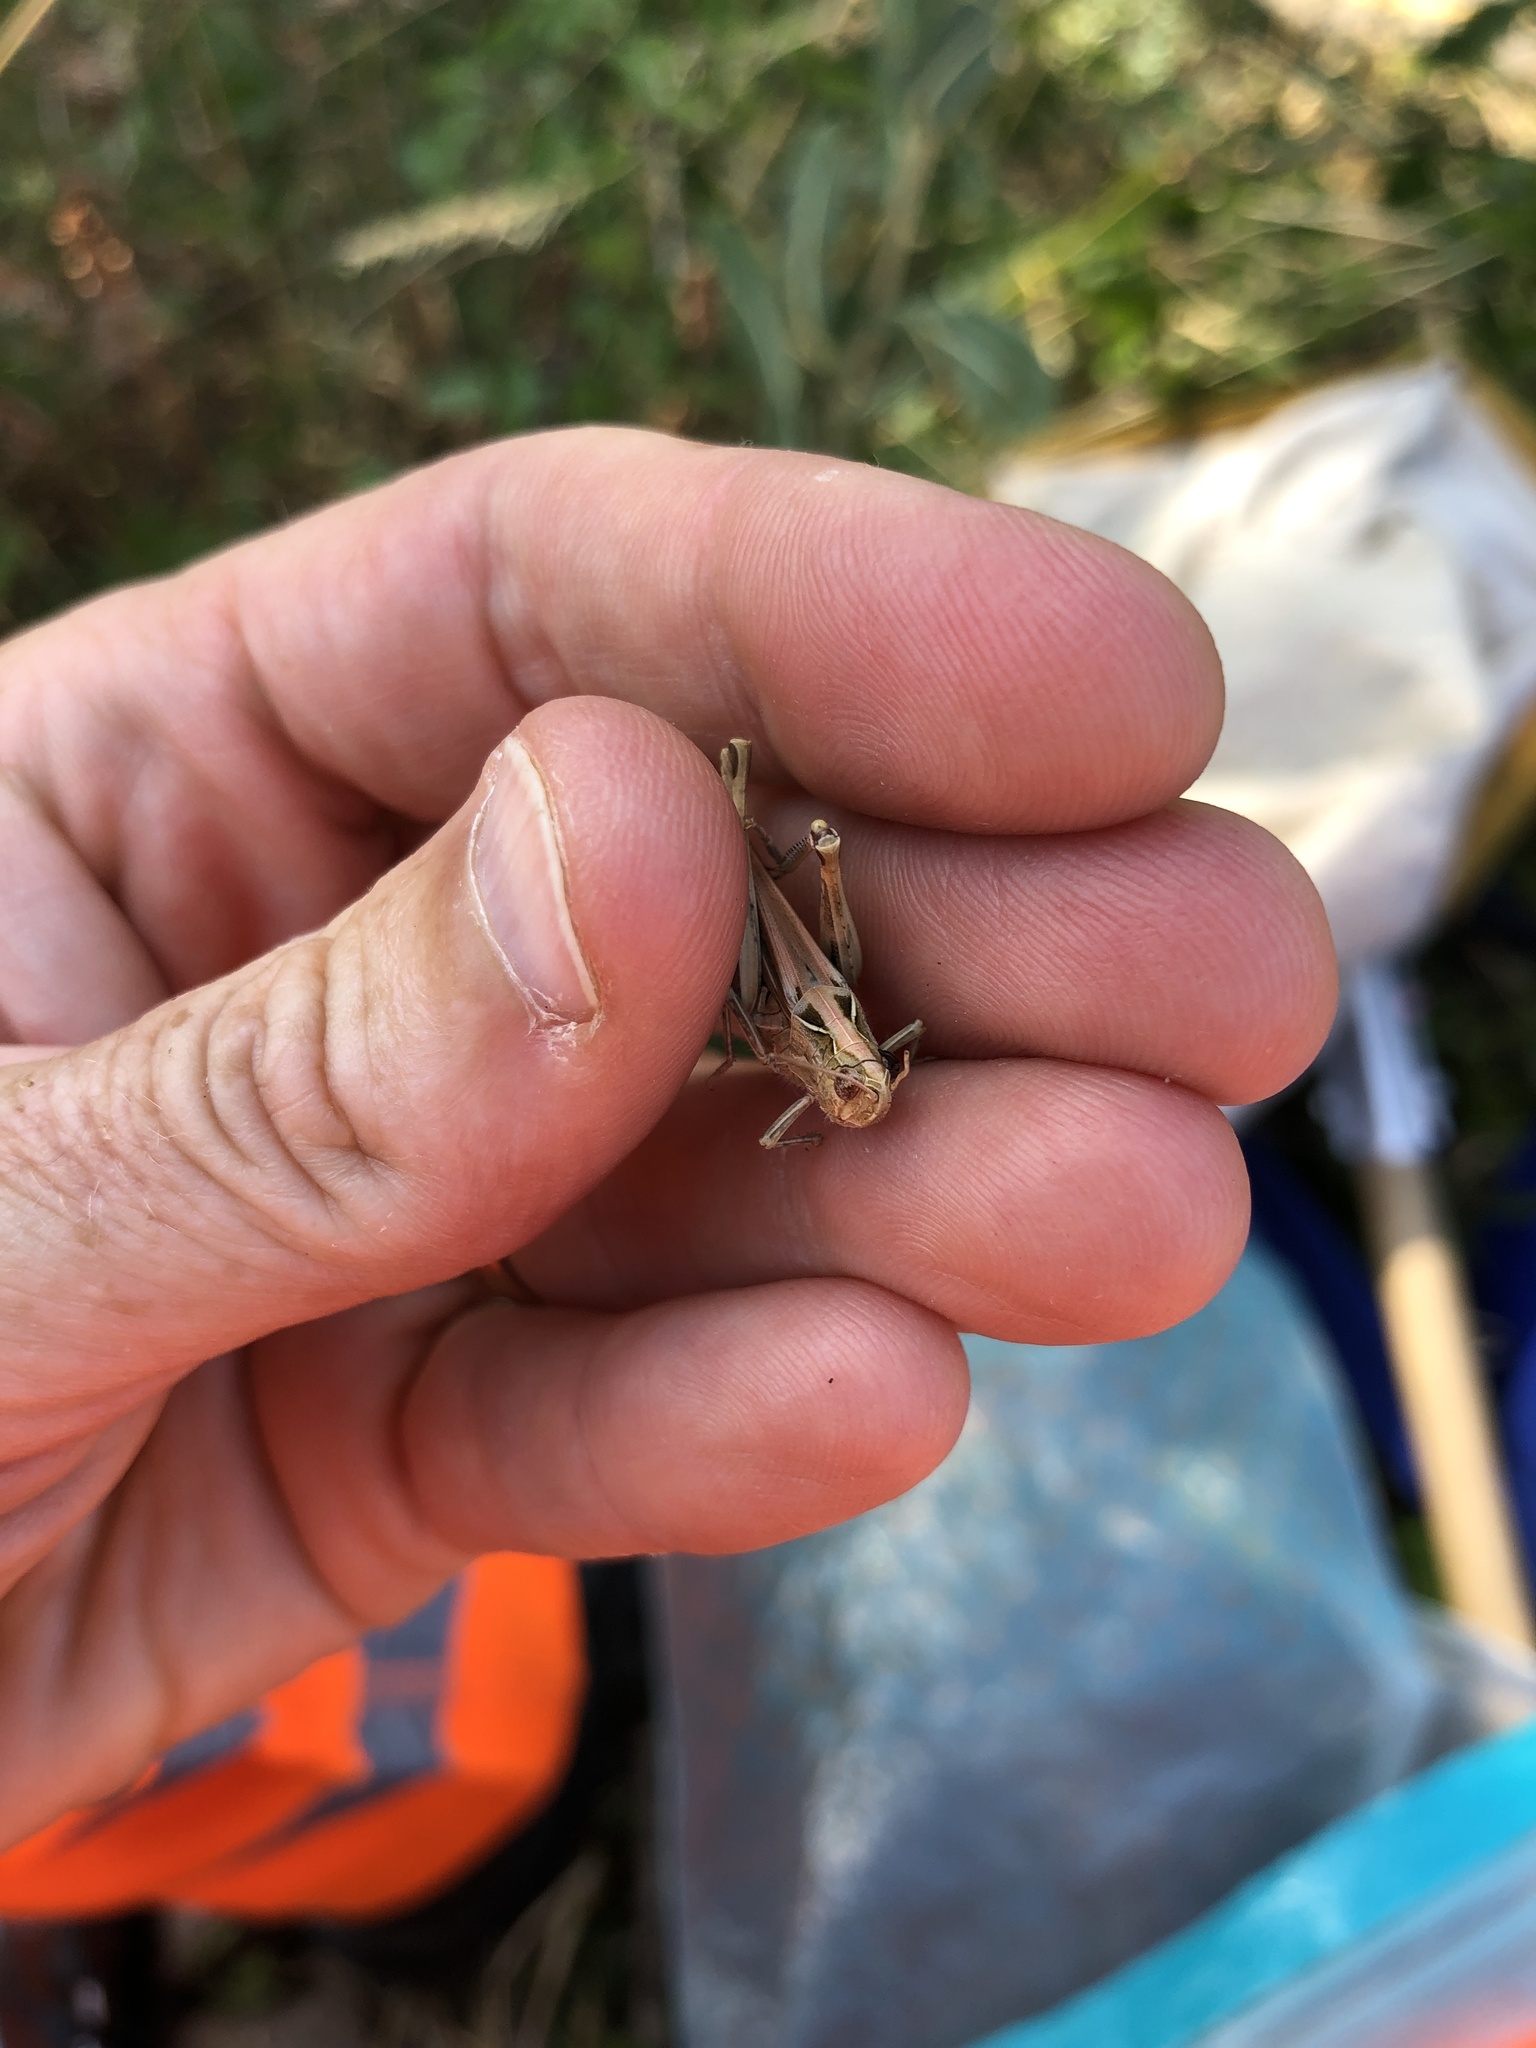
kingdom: Animalia
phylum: Arthropoda
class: Insecta
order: Orthoptera
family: Acrididae
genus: Chorthippus
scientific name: Chorthippus brunneus
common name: Field grasshopper
